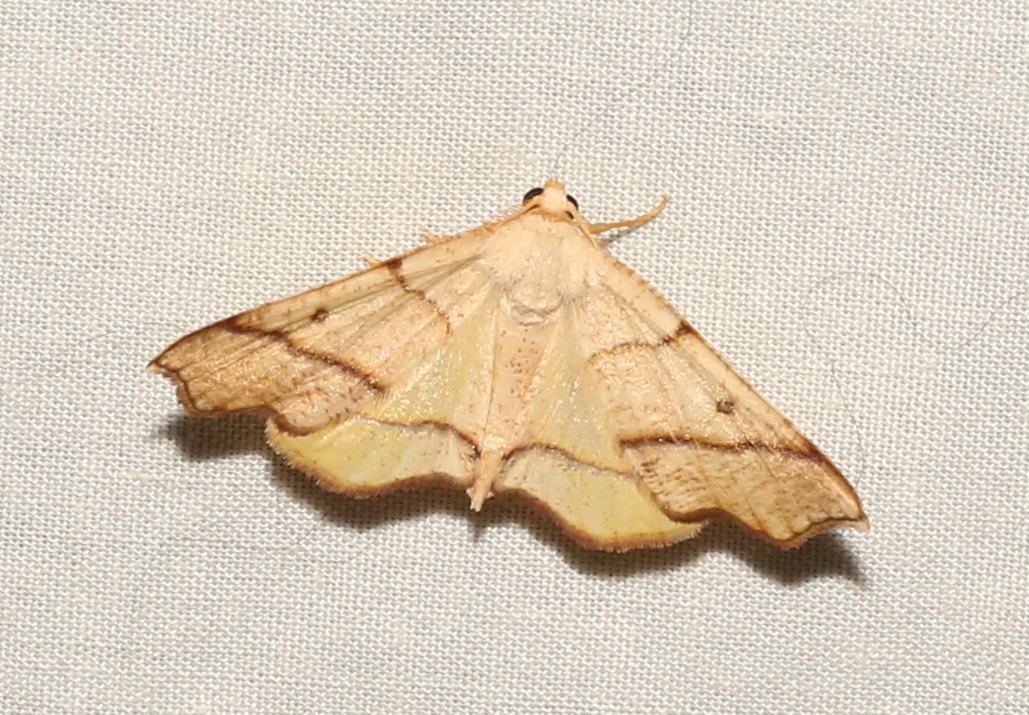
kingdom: Animalia
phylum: Arthropoda
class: Insecta
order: Lepidoptera
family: Geometridae
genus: Plagodis
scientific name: Plagodis alcoolaria
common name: Hollow-spotted plagodis
